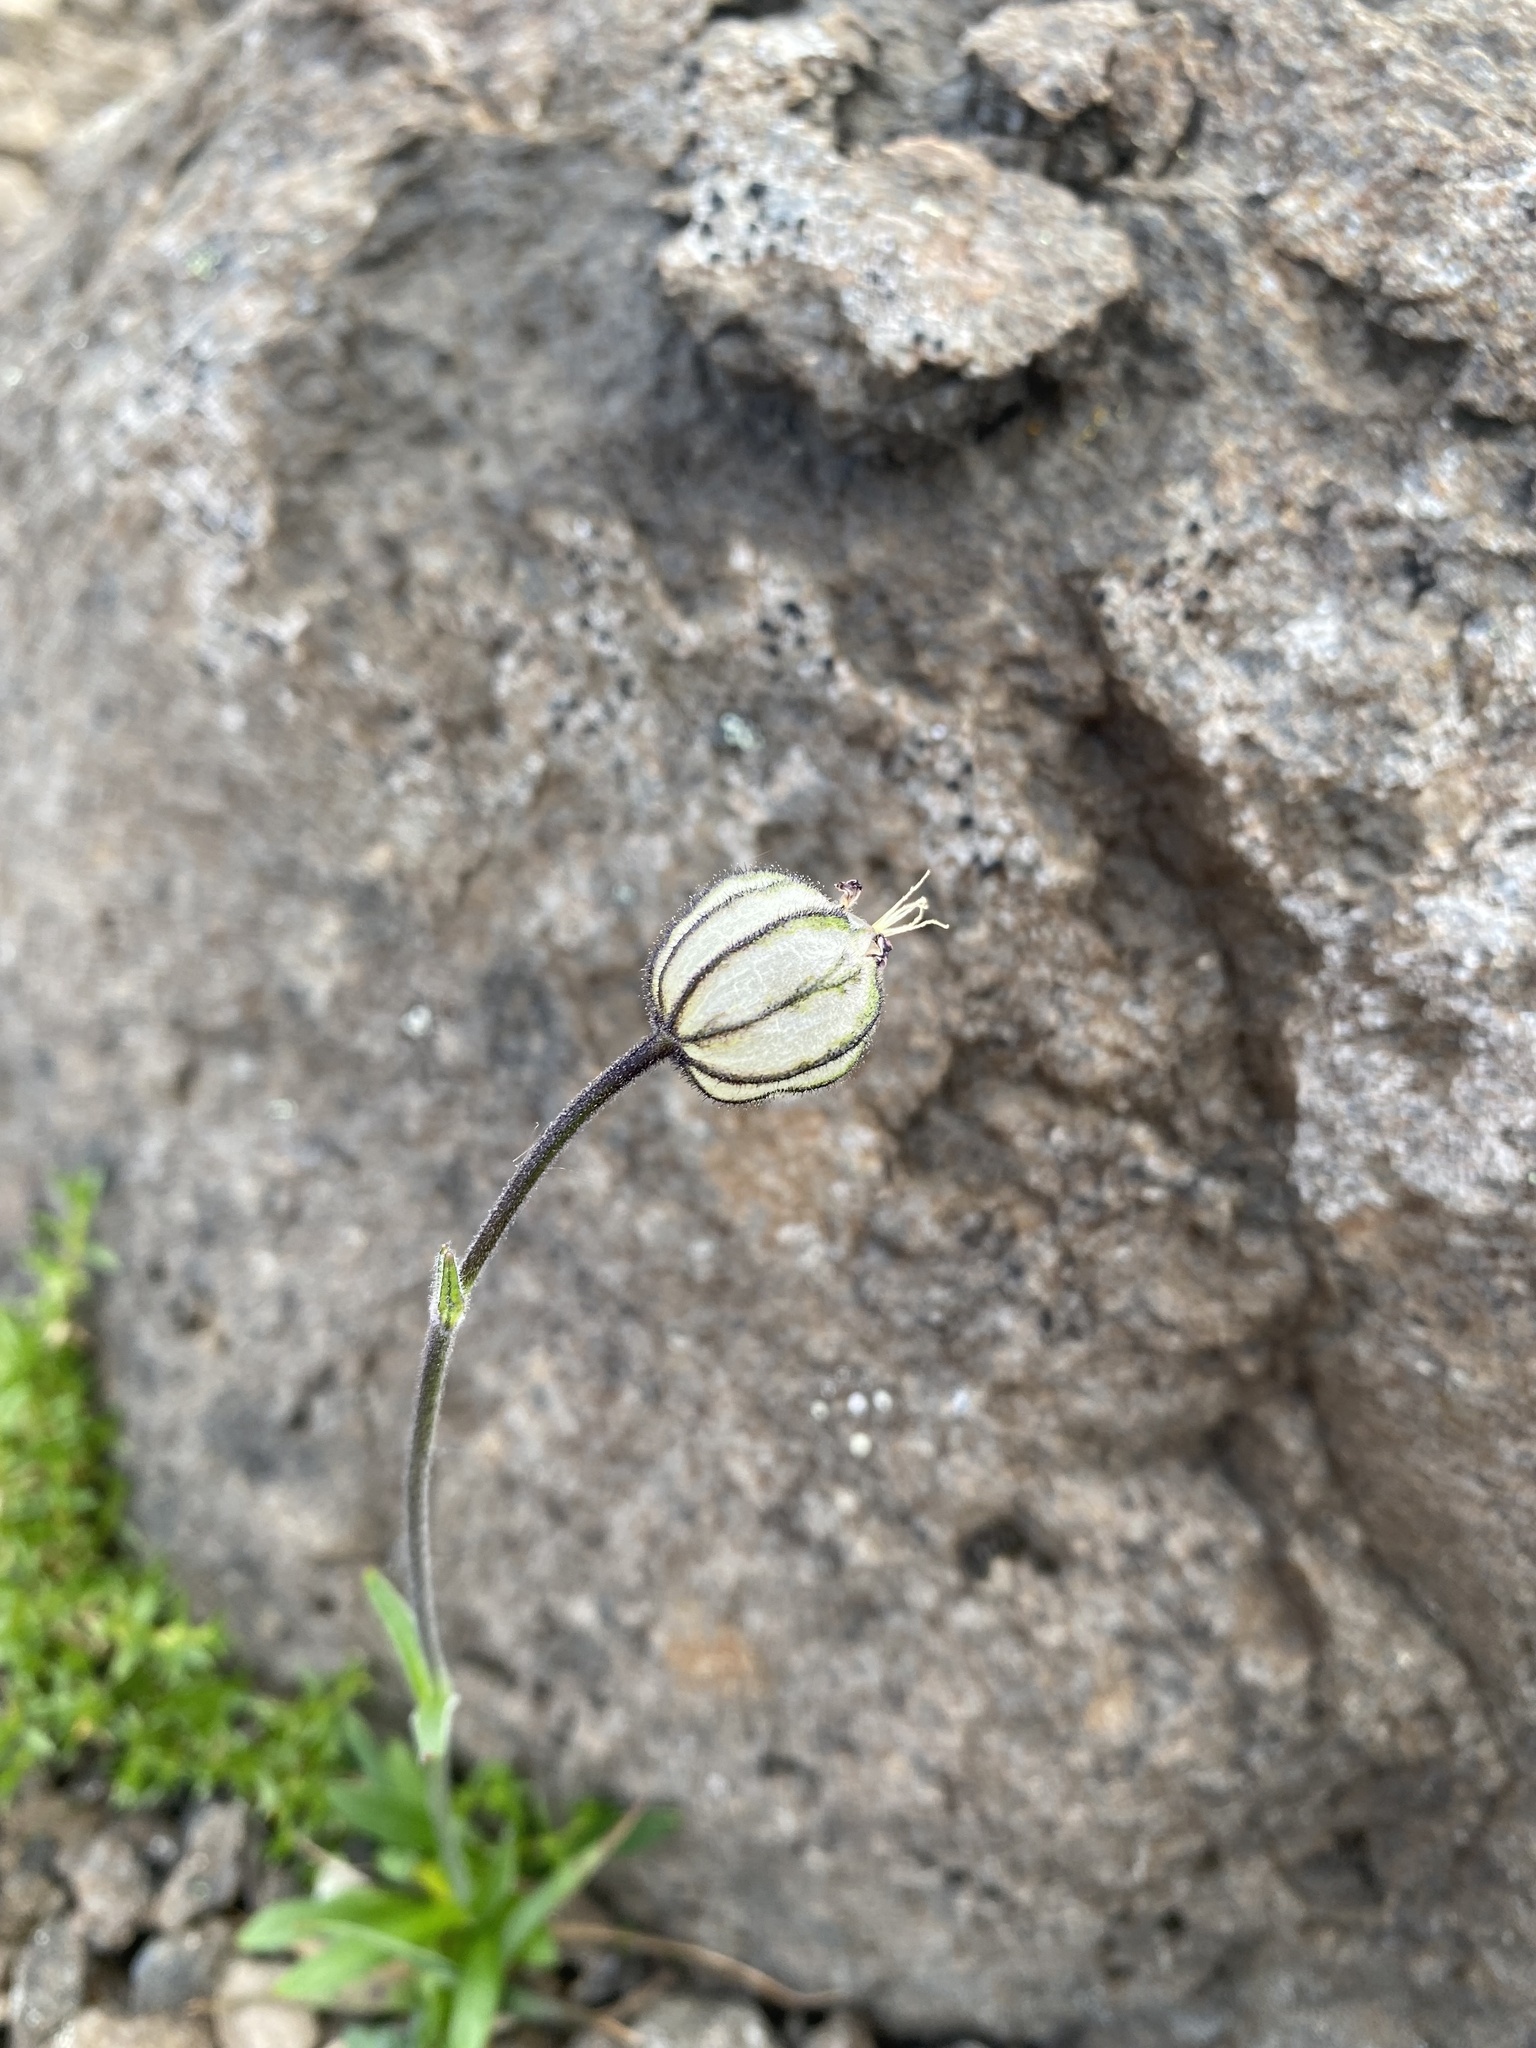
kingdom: Plantae
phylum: Tracheophyta
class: Magnoliopsida
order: Caryophyllales
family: Caryophyllaceae
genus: Silene
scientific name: Silene wahlbergella
